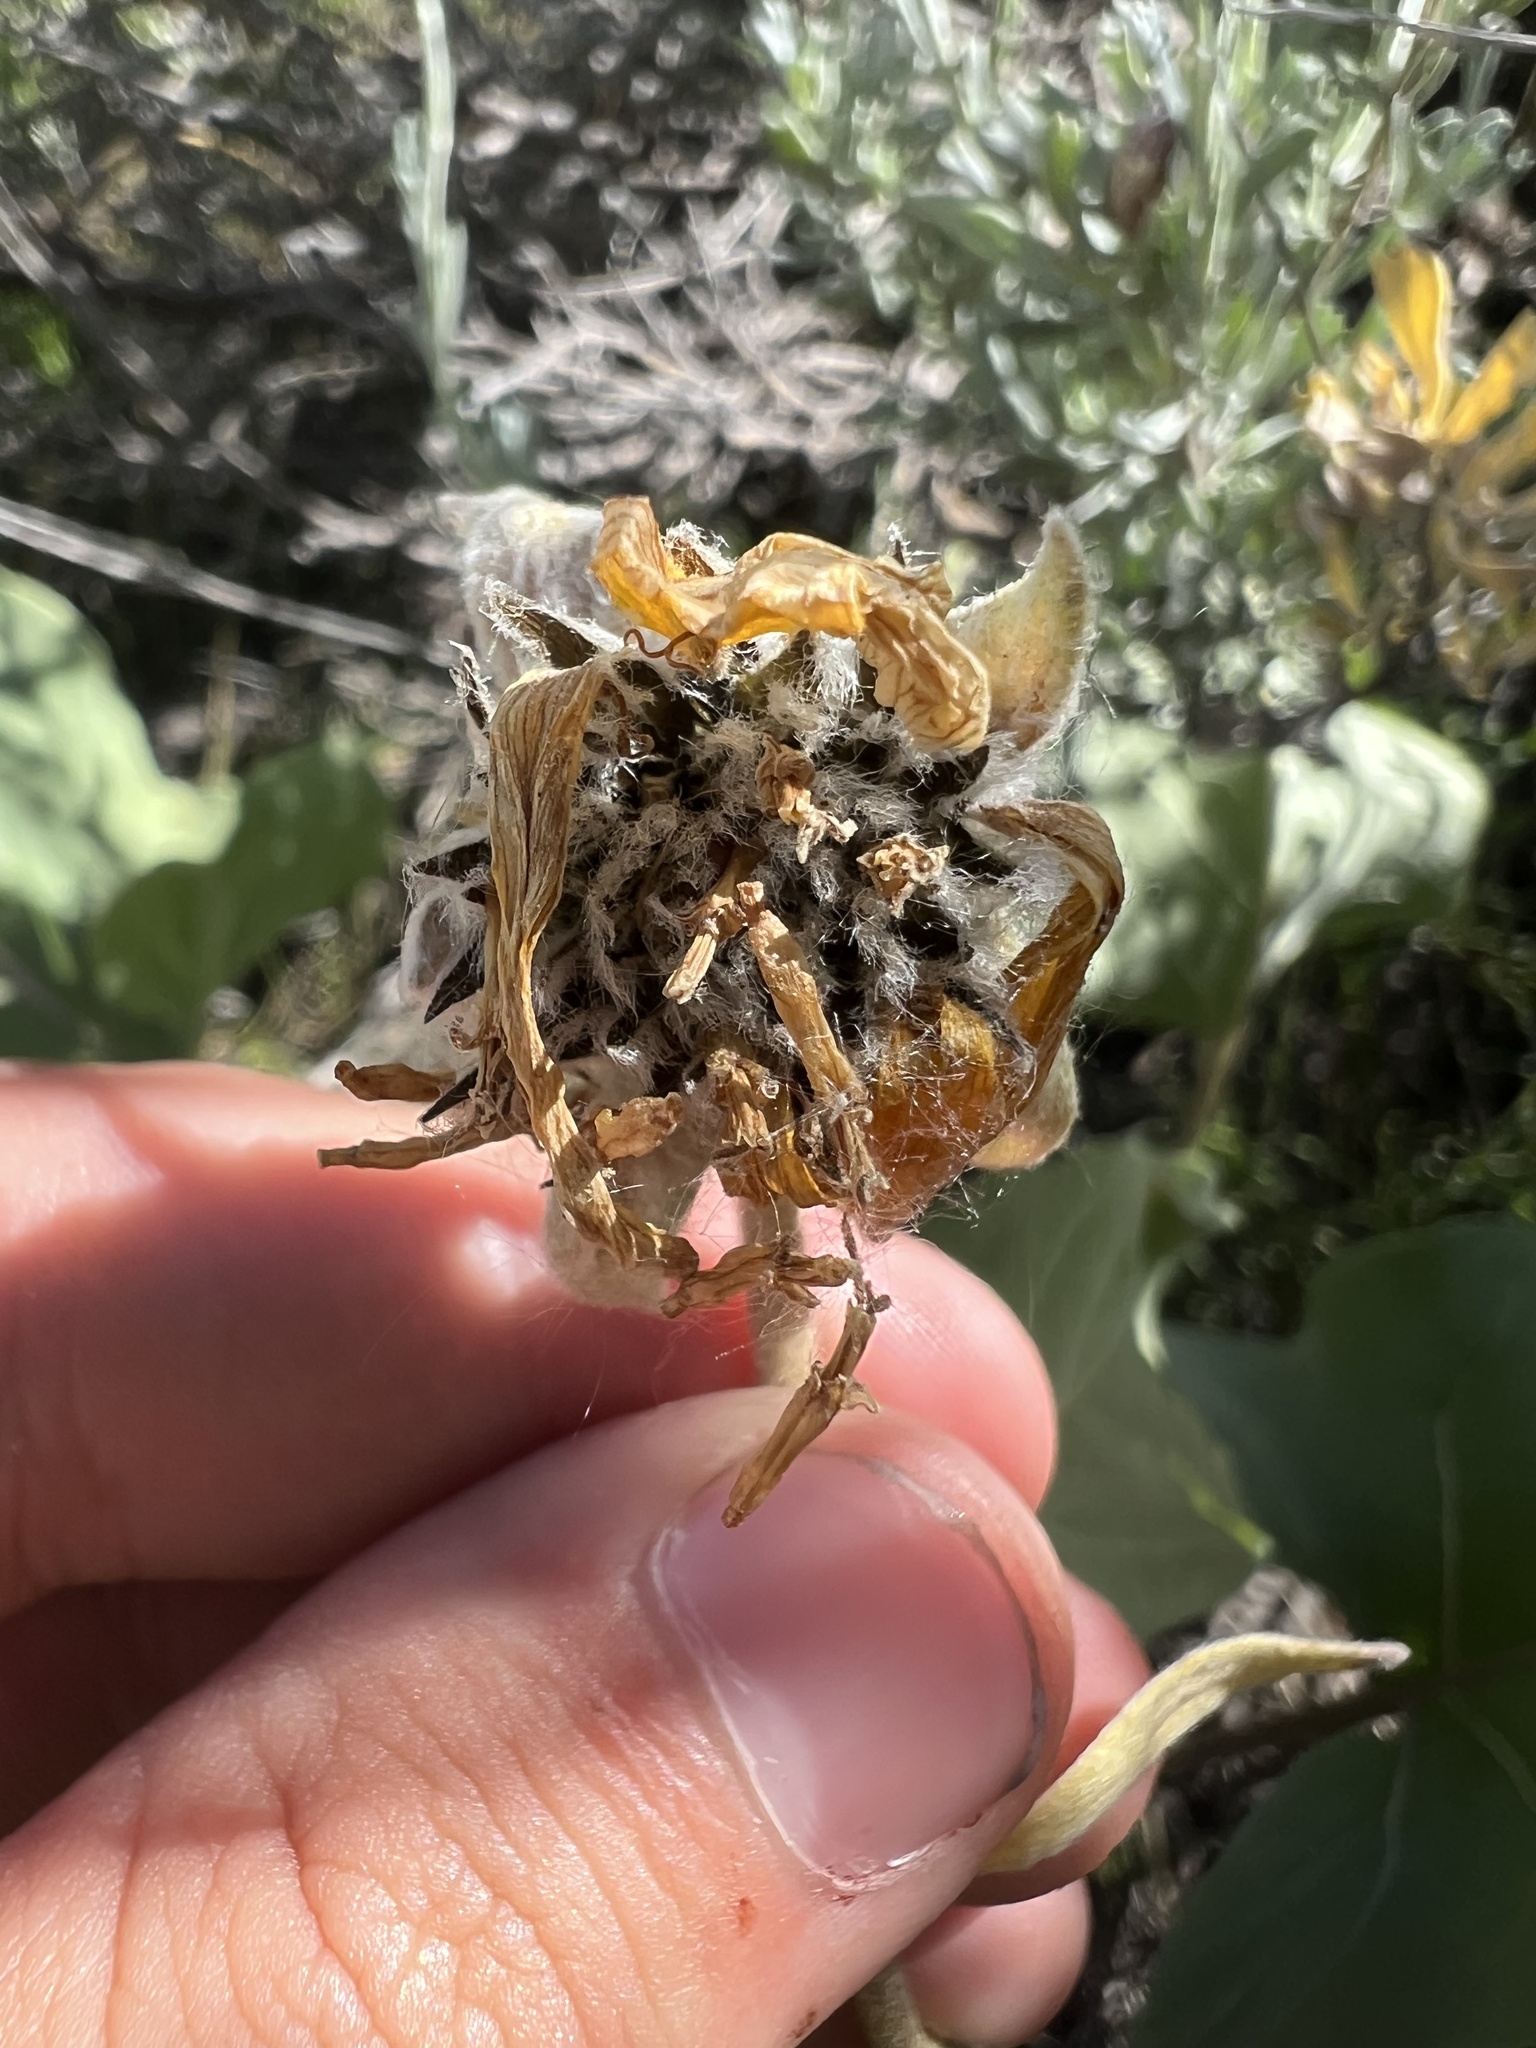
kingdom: Plantae
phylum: Tracheophyta
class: Magnoliopsida
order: Asterales
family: Asteraceae
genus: Wyethia
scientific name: Wyethia sagittata
